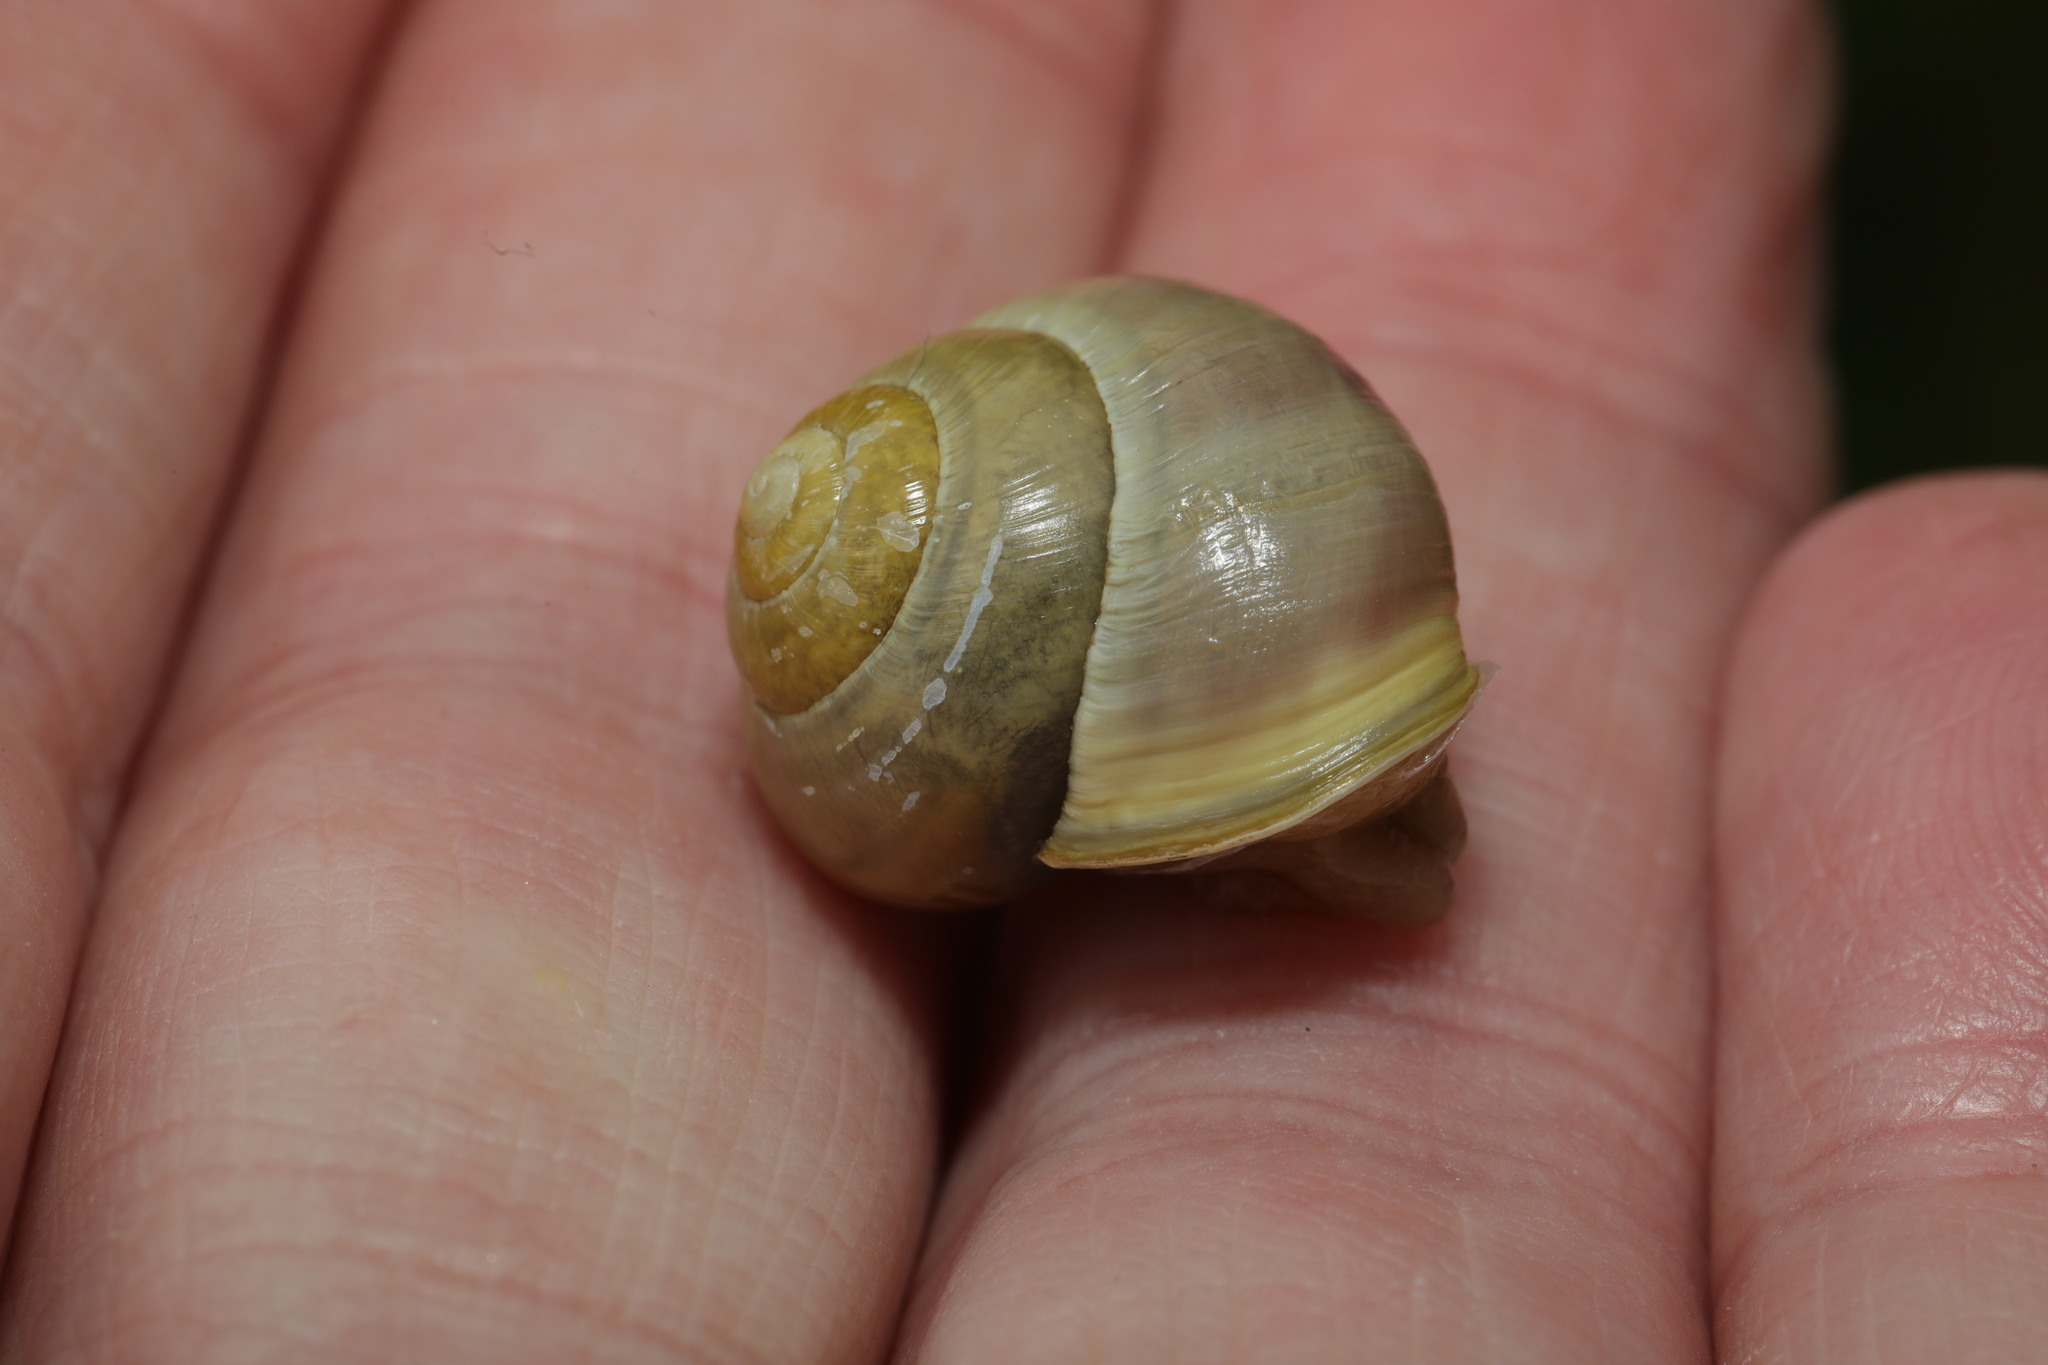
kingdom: Animalia
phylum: Mollusca
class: Gastropoda
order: Stylommatophora
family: Helicidae
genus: Cepaea
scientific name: Cepaea hortensis
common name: White-lip gardensnail
